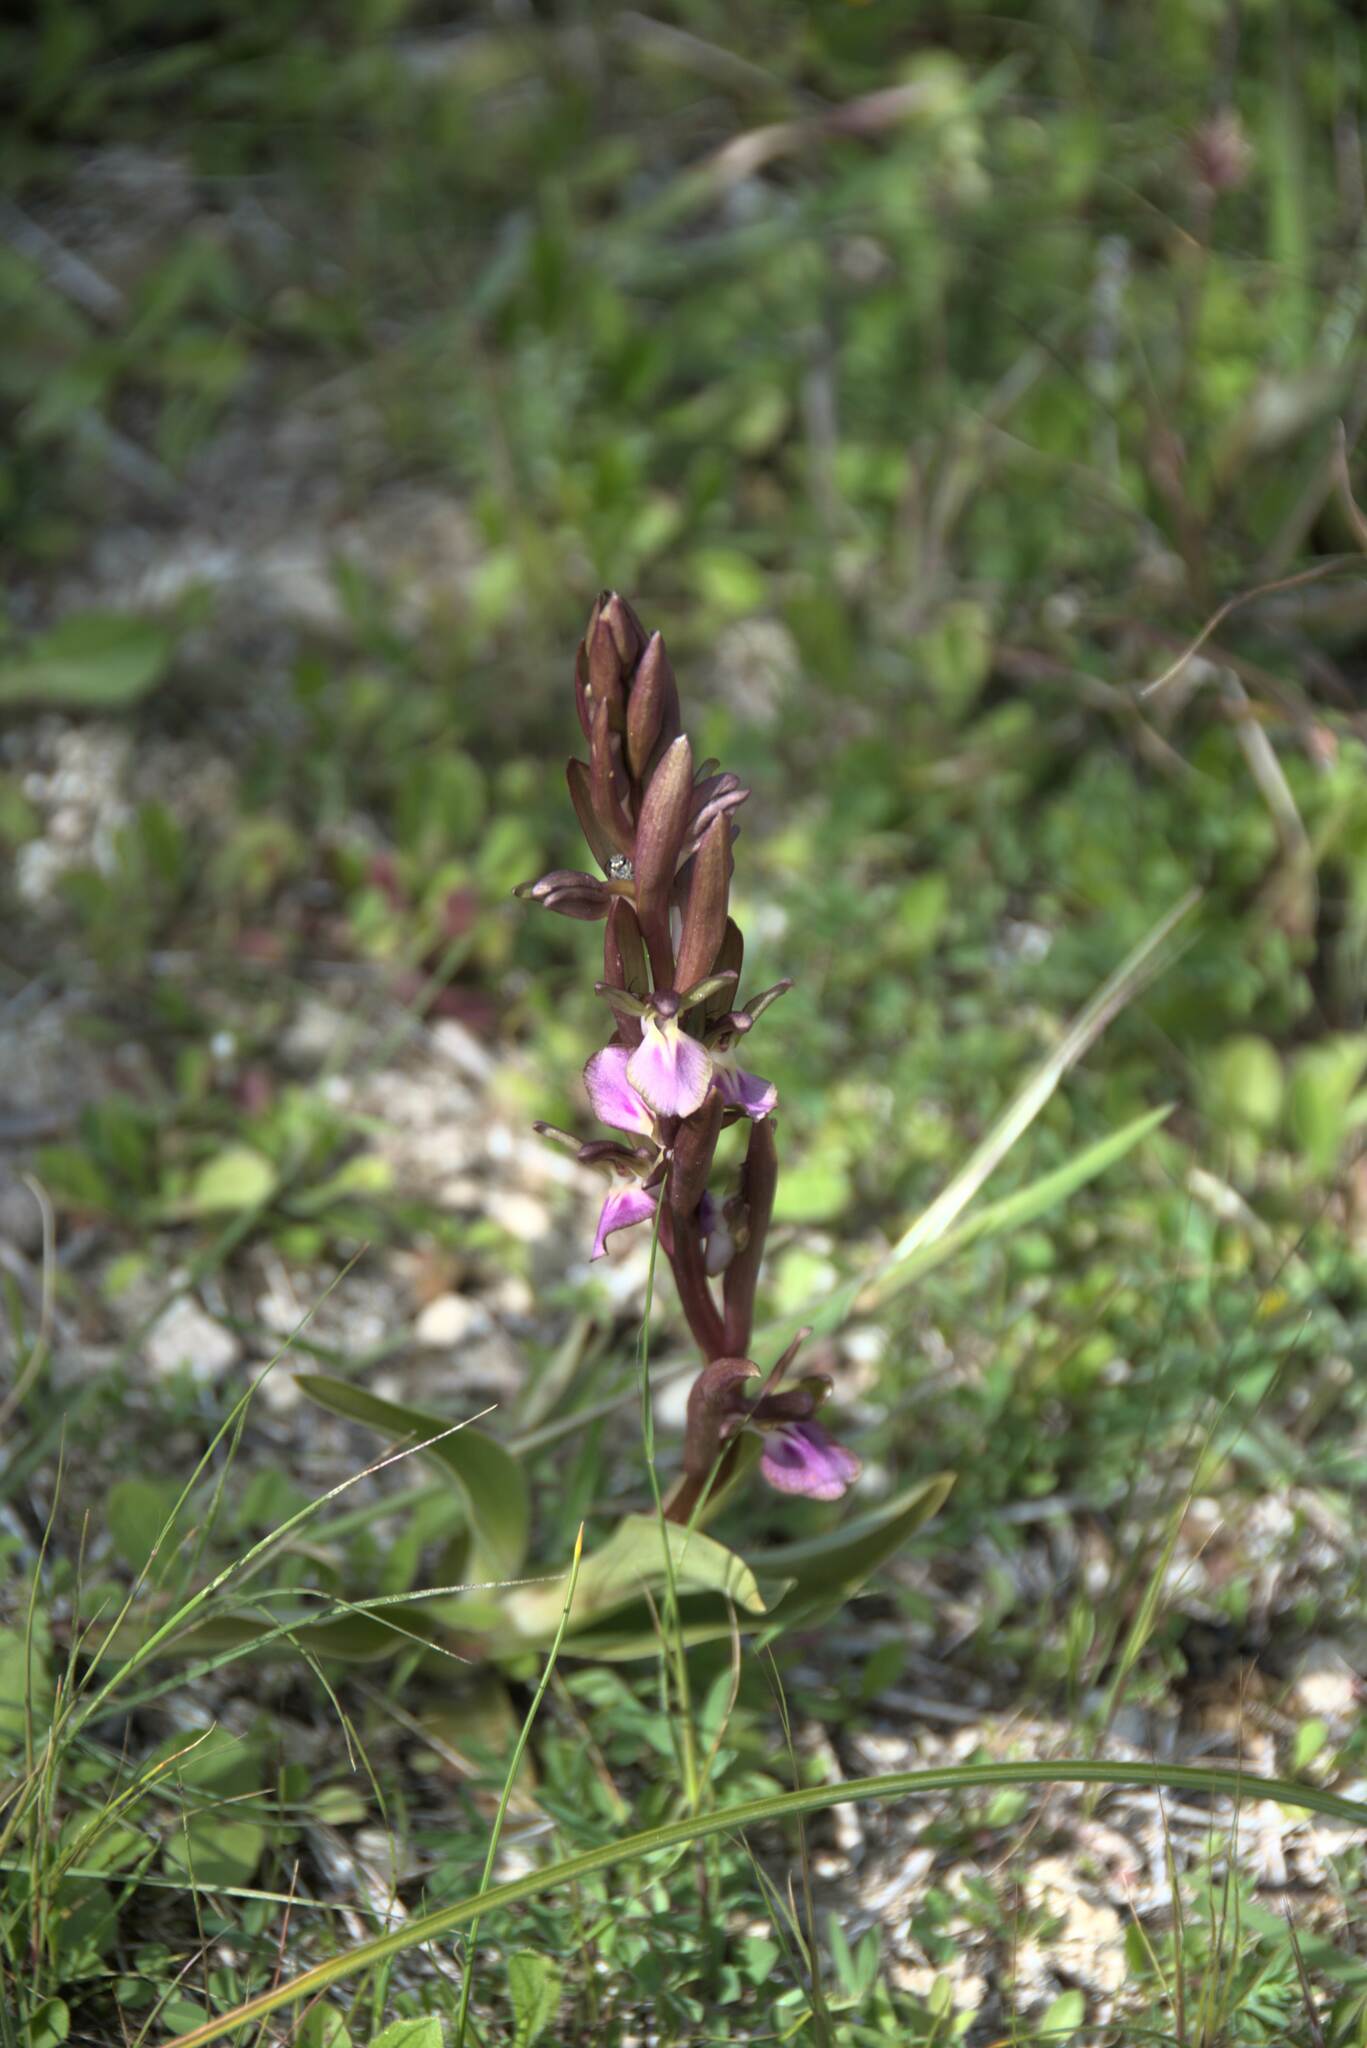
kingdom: Plantae
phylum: Tracheophyta
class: Liliopsida
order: Asparagales
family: Orchidaceae
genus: Anacamptis
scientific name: Anacamptis collina
